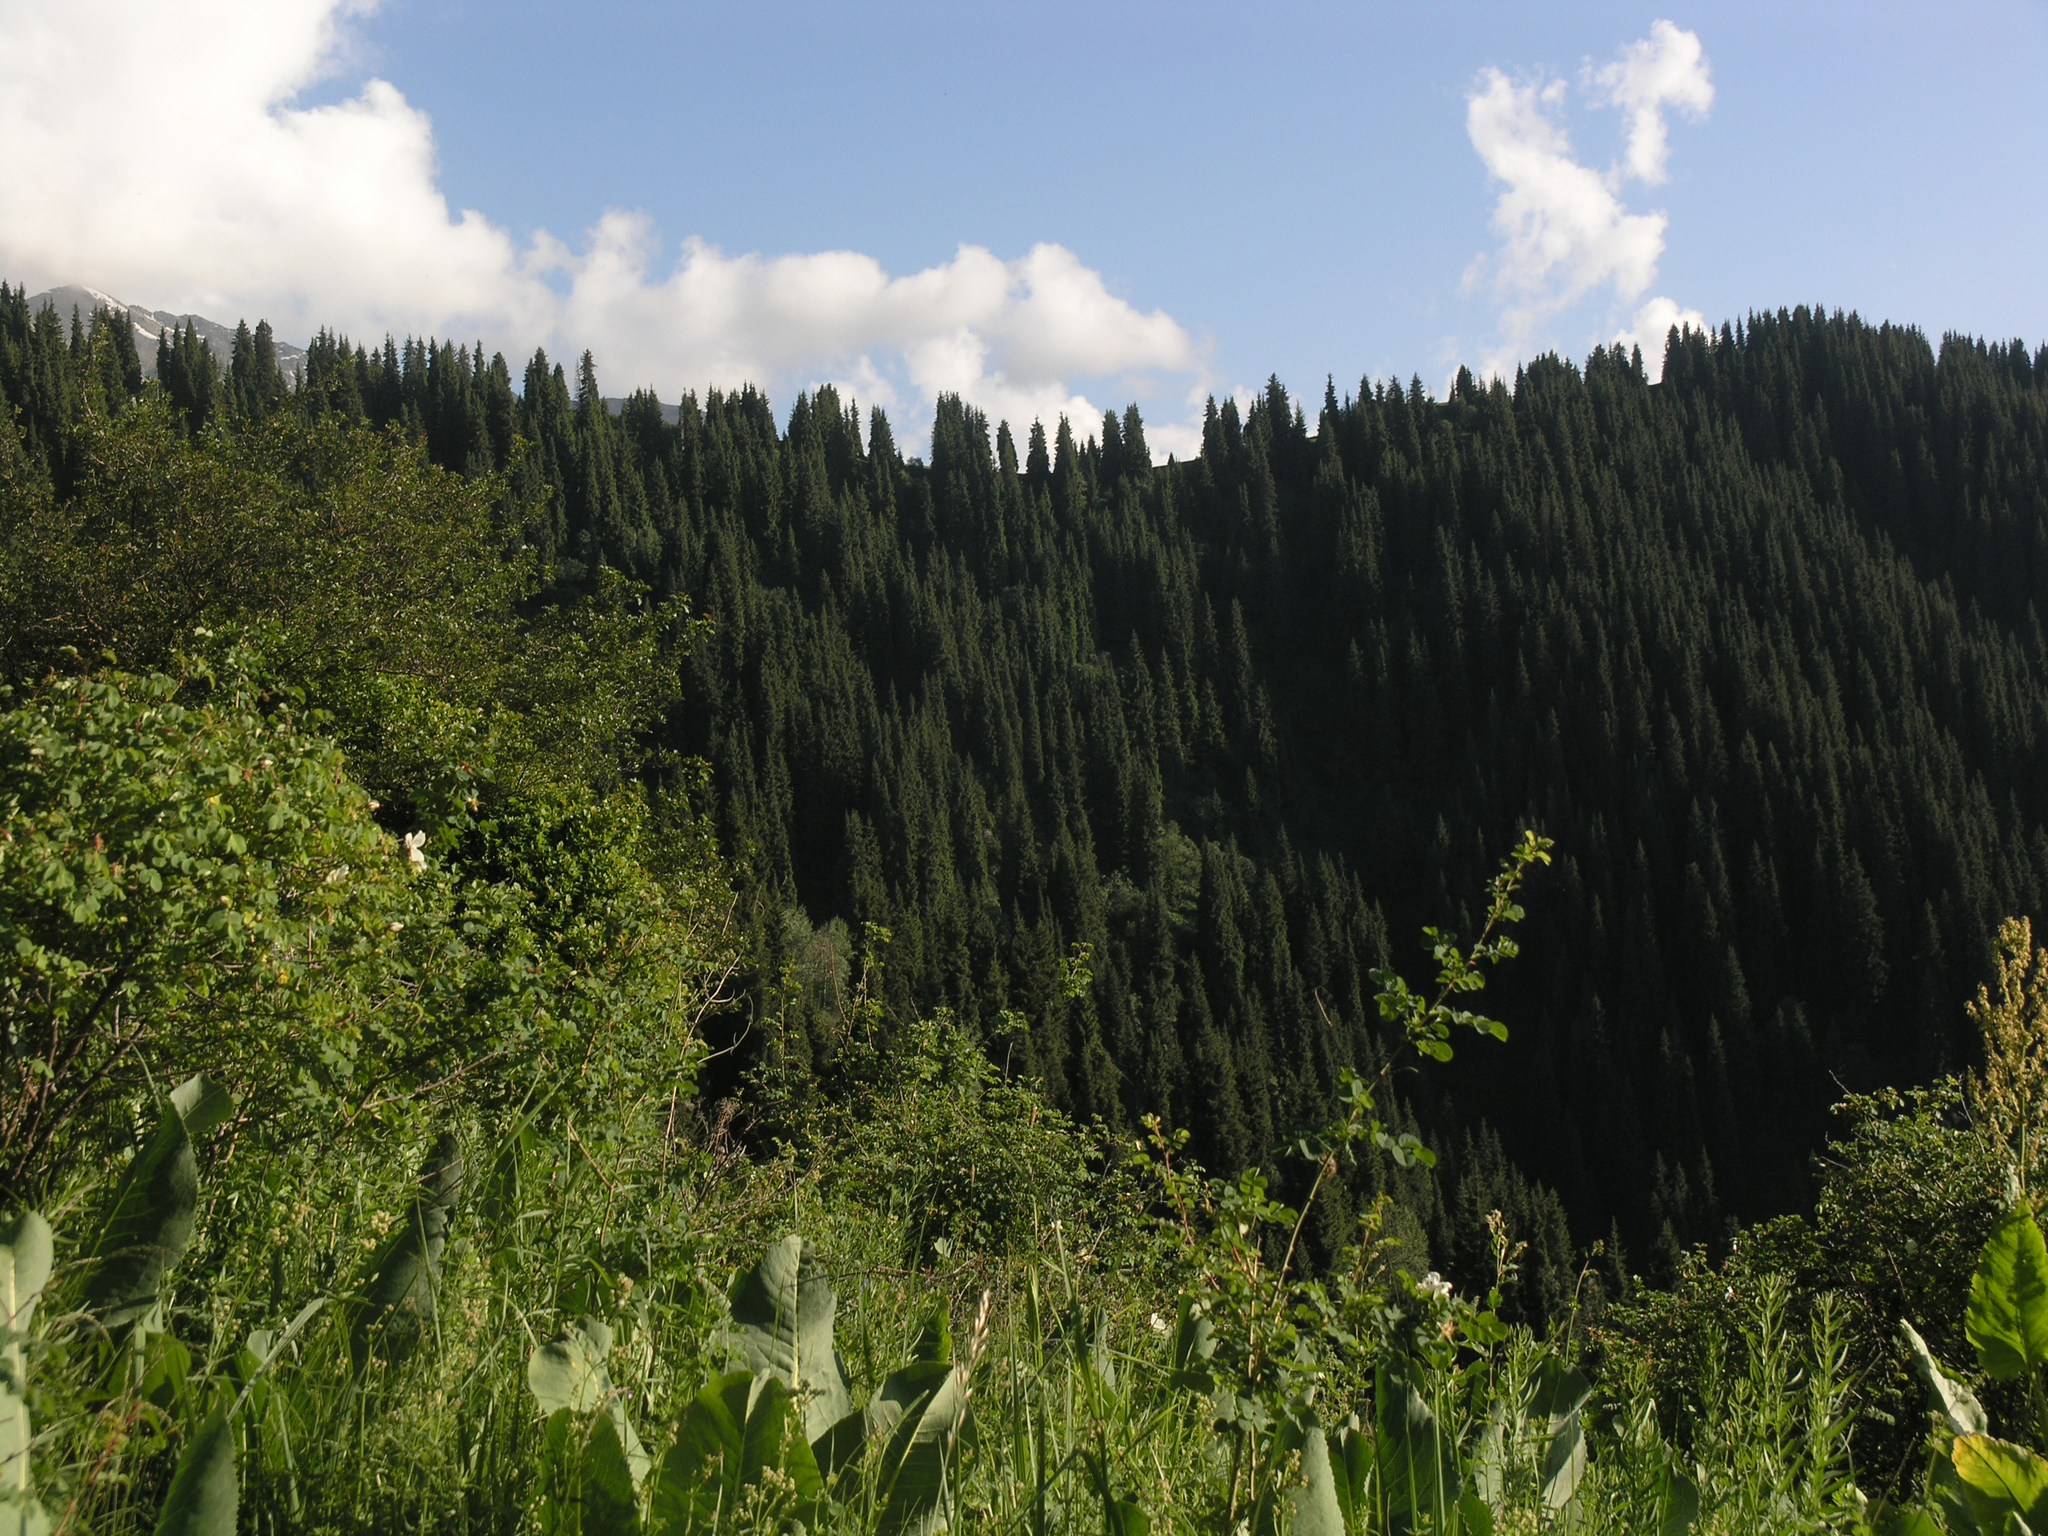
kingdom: Plantae
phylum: Tracheophyta
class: Magnoliopsida
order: Asterales
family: Asteraceae
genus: Ligularia
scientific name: Ligularia heterophylla
